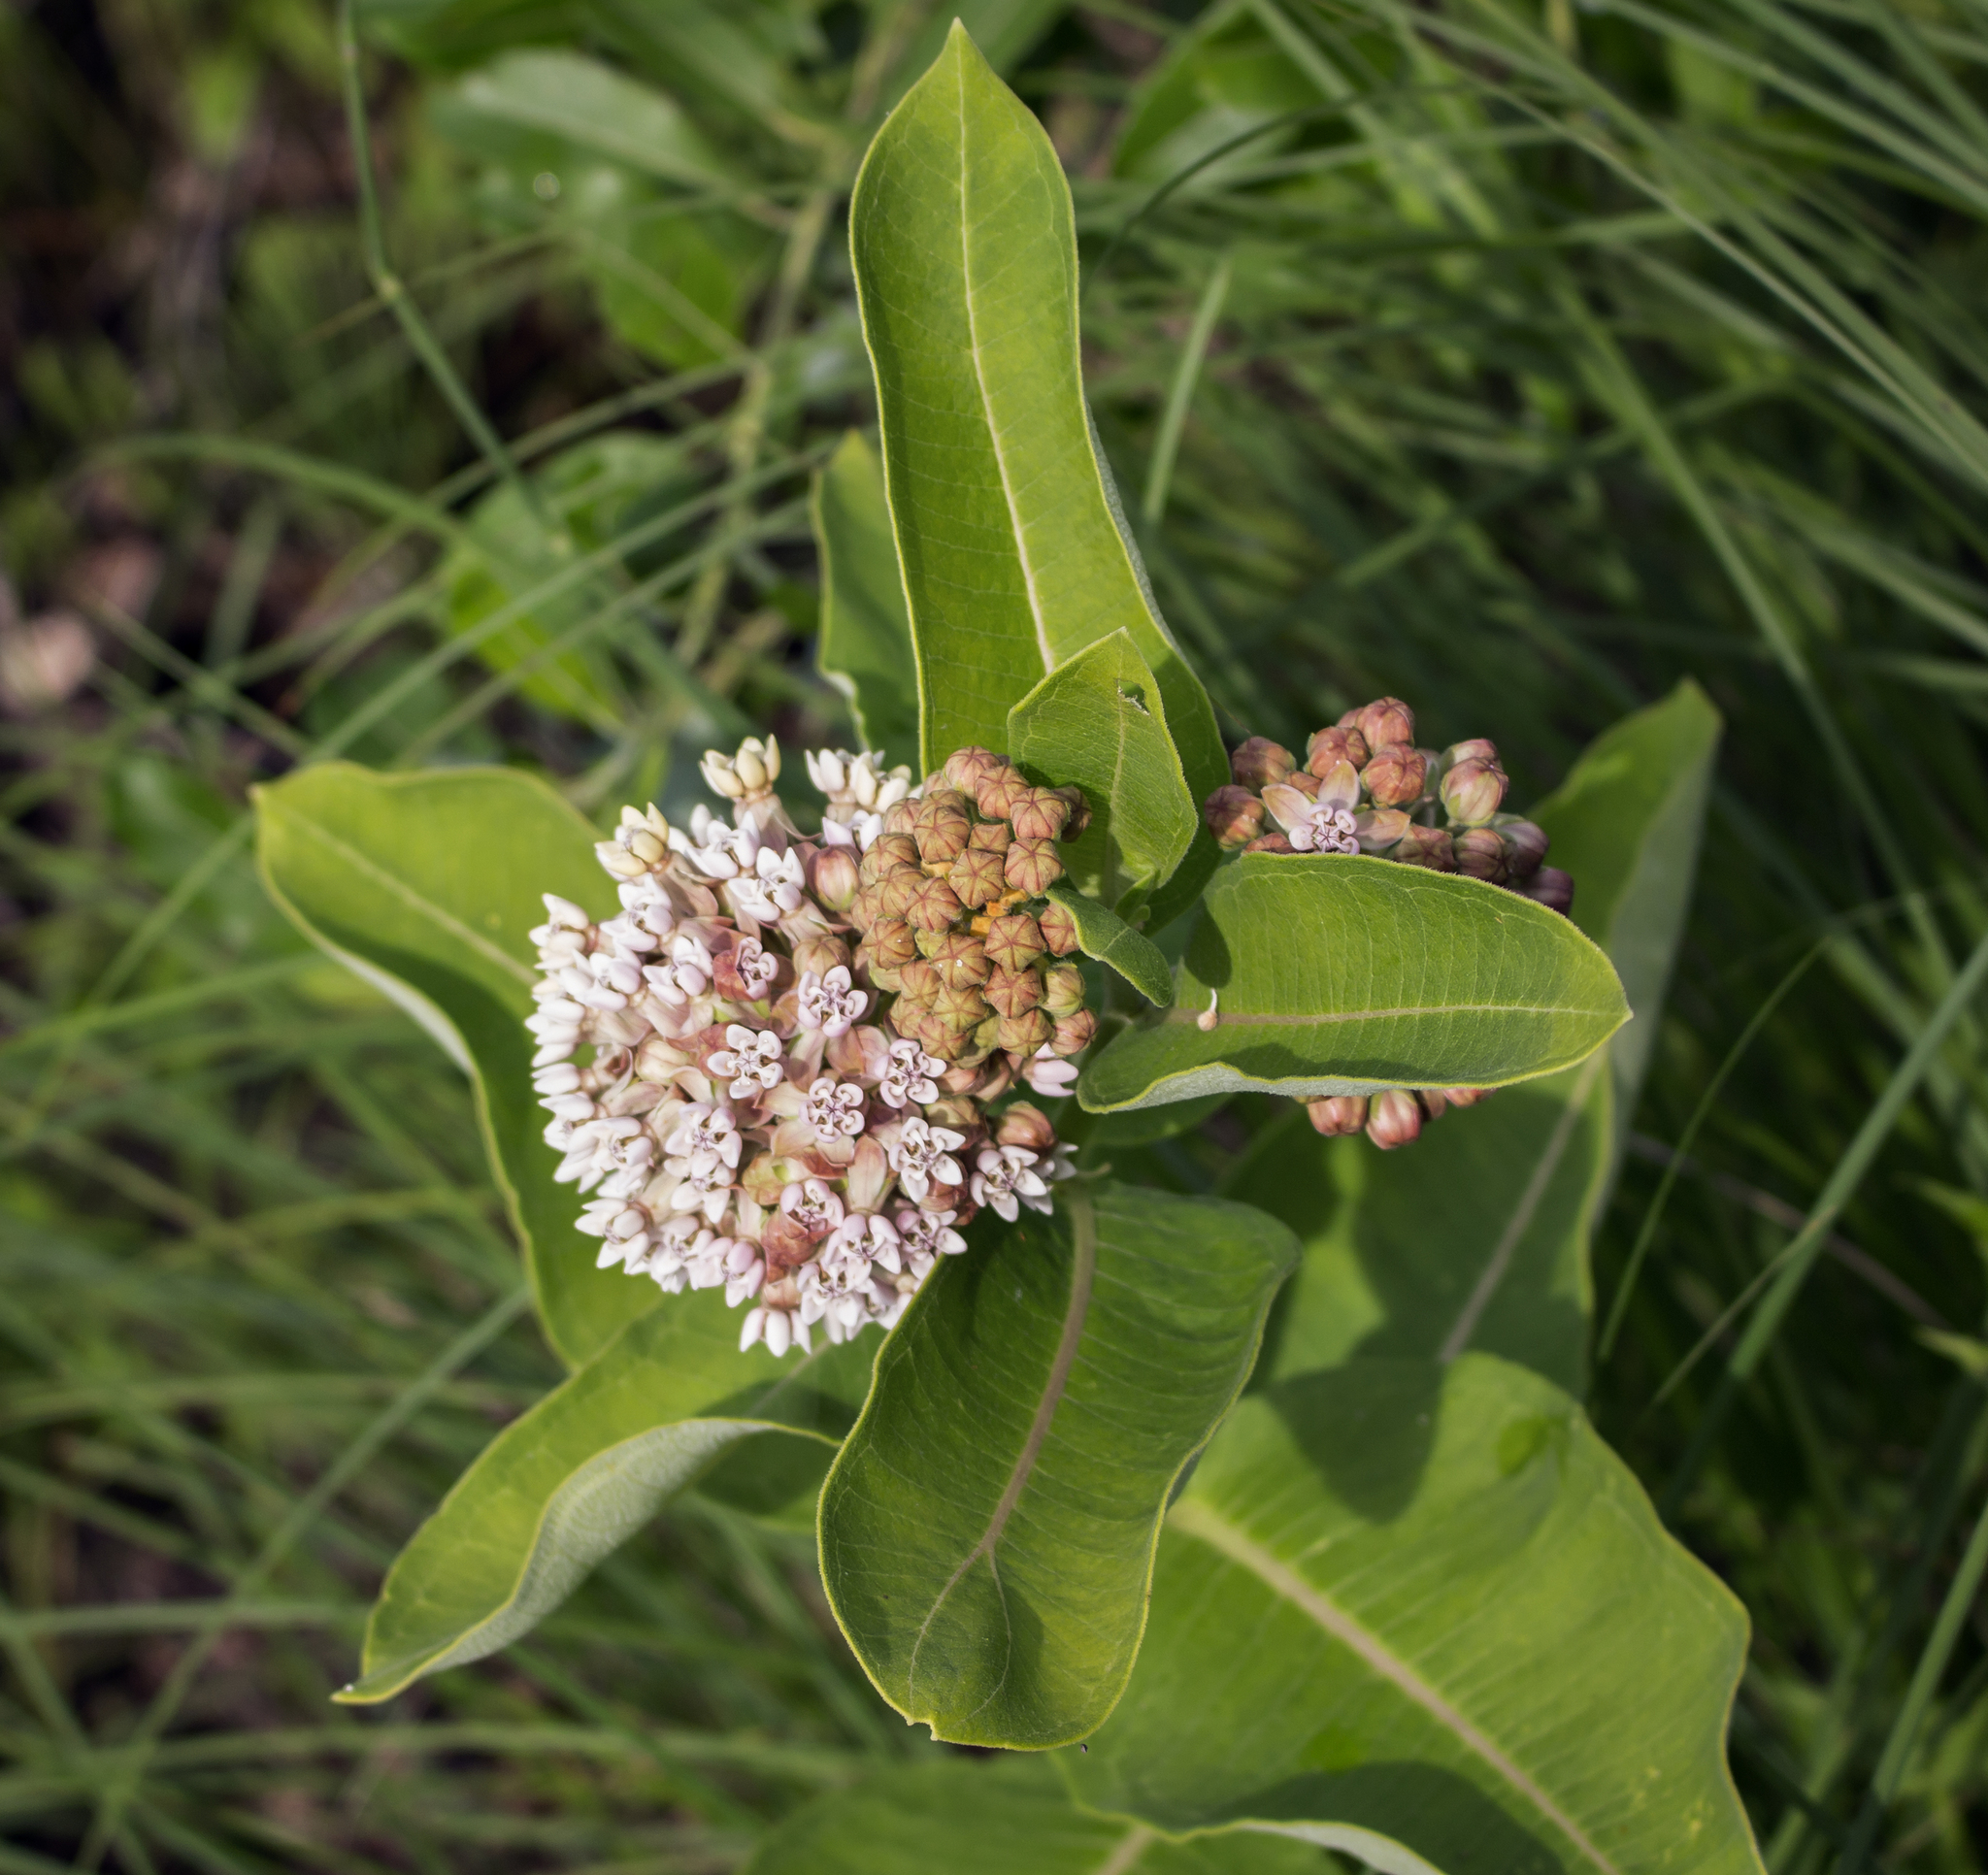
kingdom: Plantae
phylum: Tracheophyta
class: Magnoliopsida
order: Gentianales
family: Apocynaceae
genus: Asclepias
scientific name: Asclepias syriaca
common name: Common milkweed
